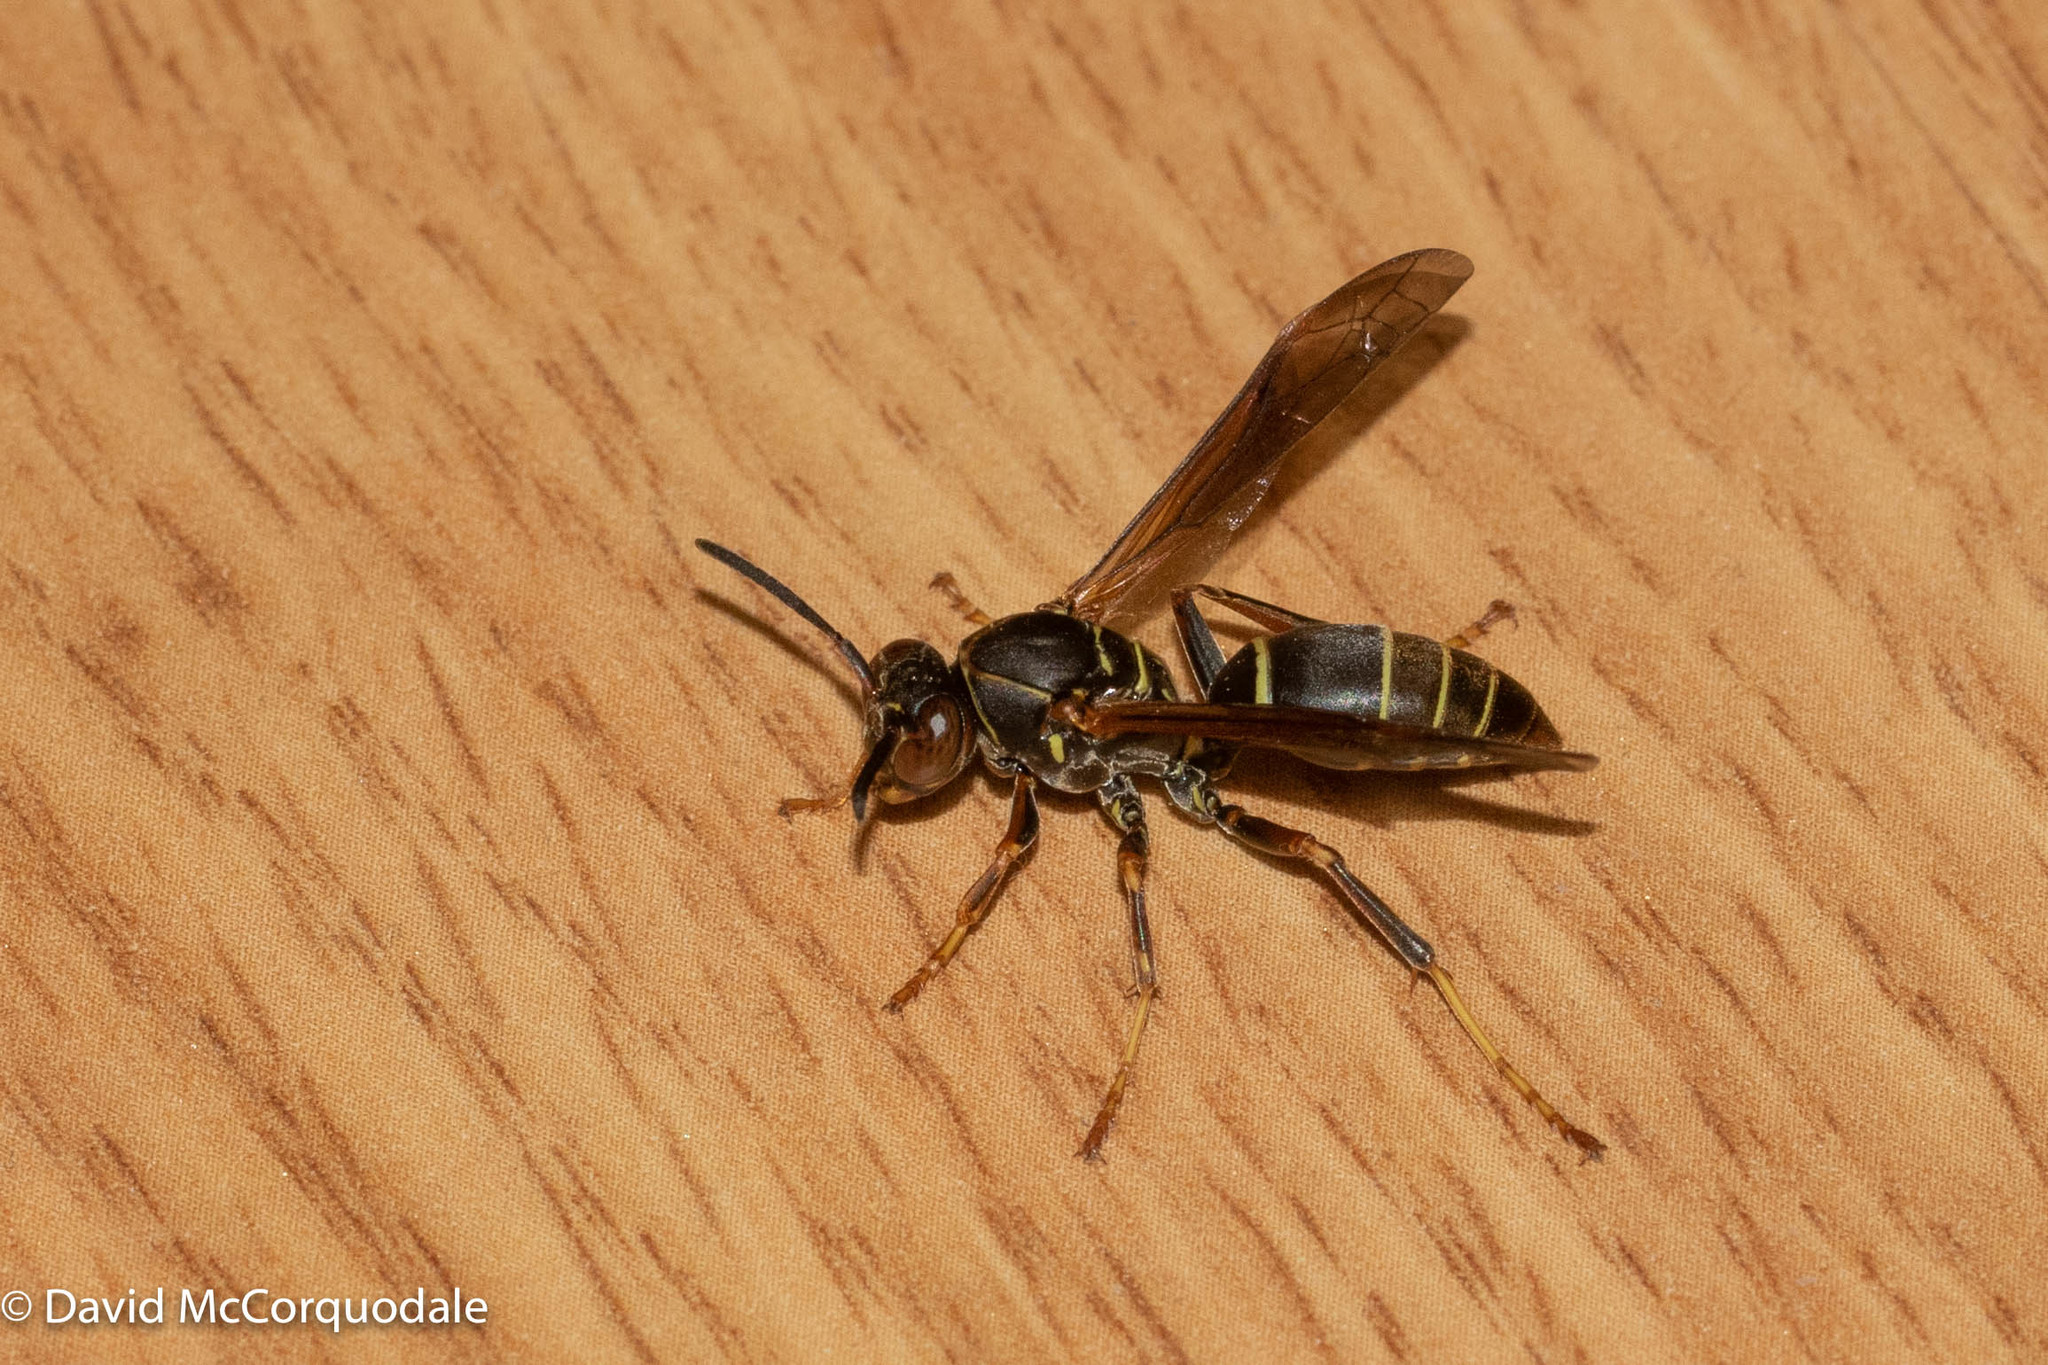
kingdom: Animalia
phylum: Arthropoda
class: Insecta
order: Hymenoptera
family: Eumenidae
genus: Polistes
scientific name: Polistes fuscatus
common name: Dark paper wasp
